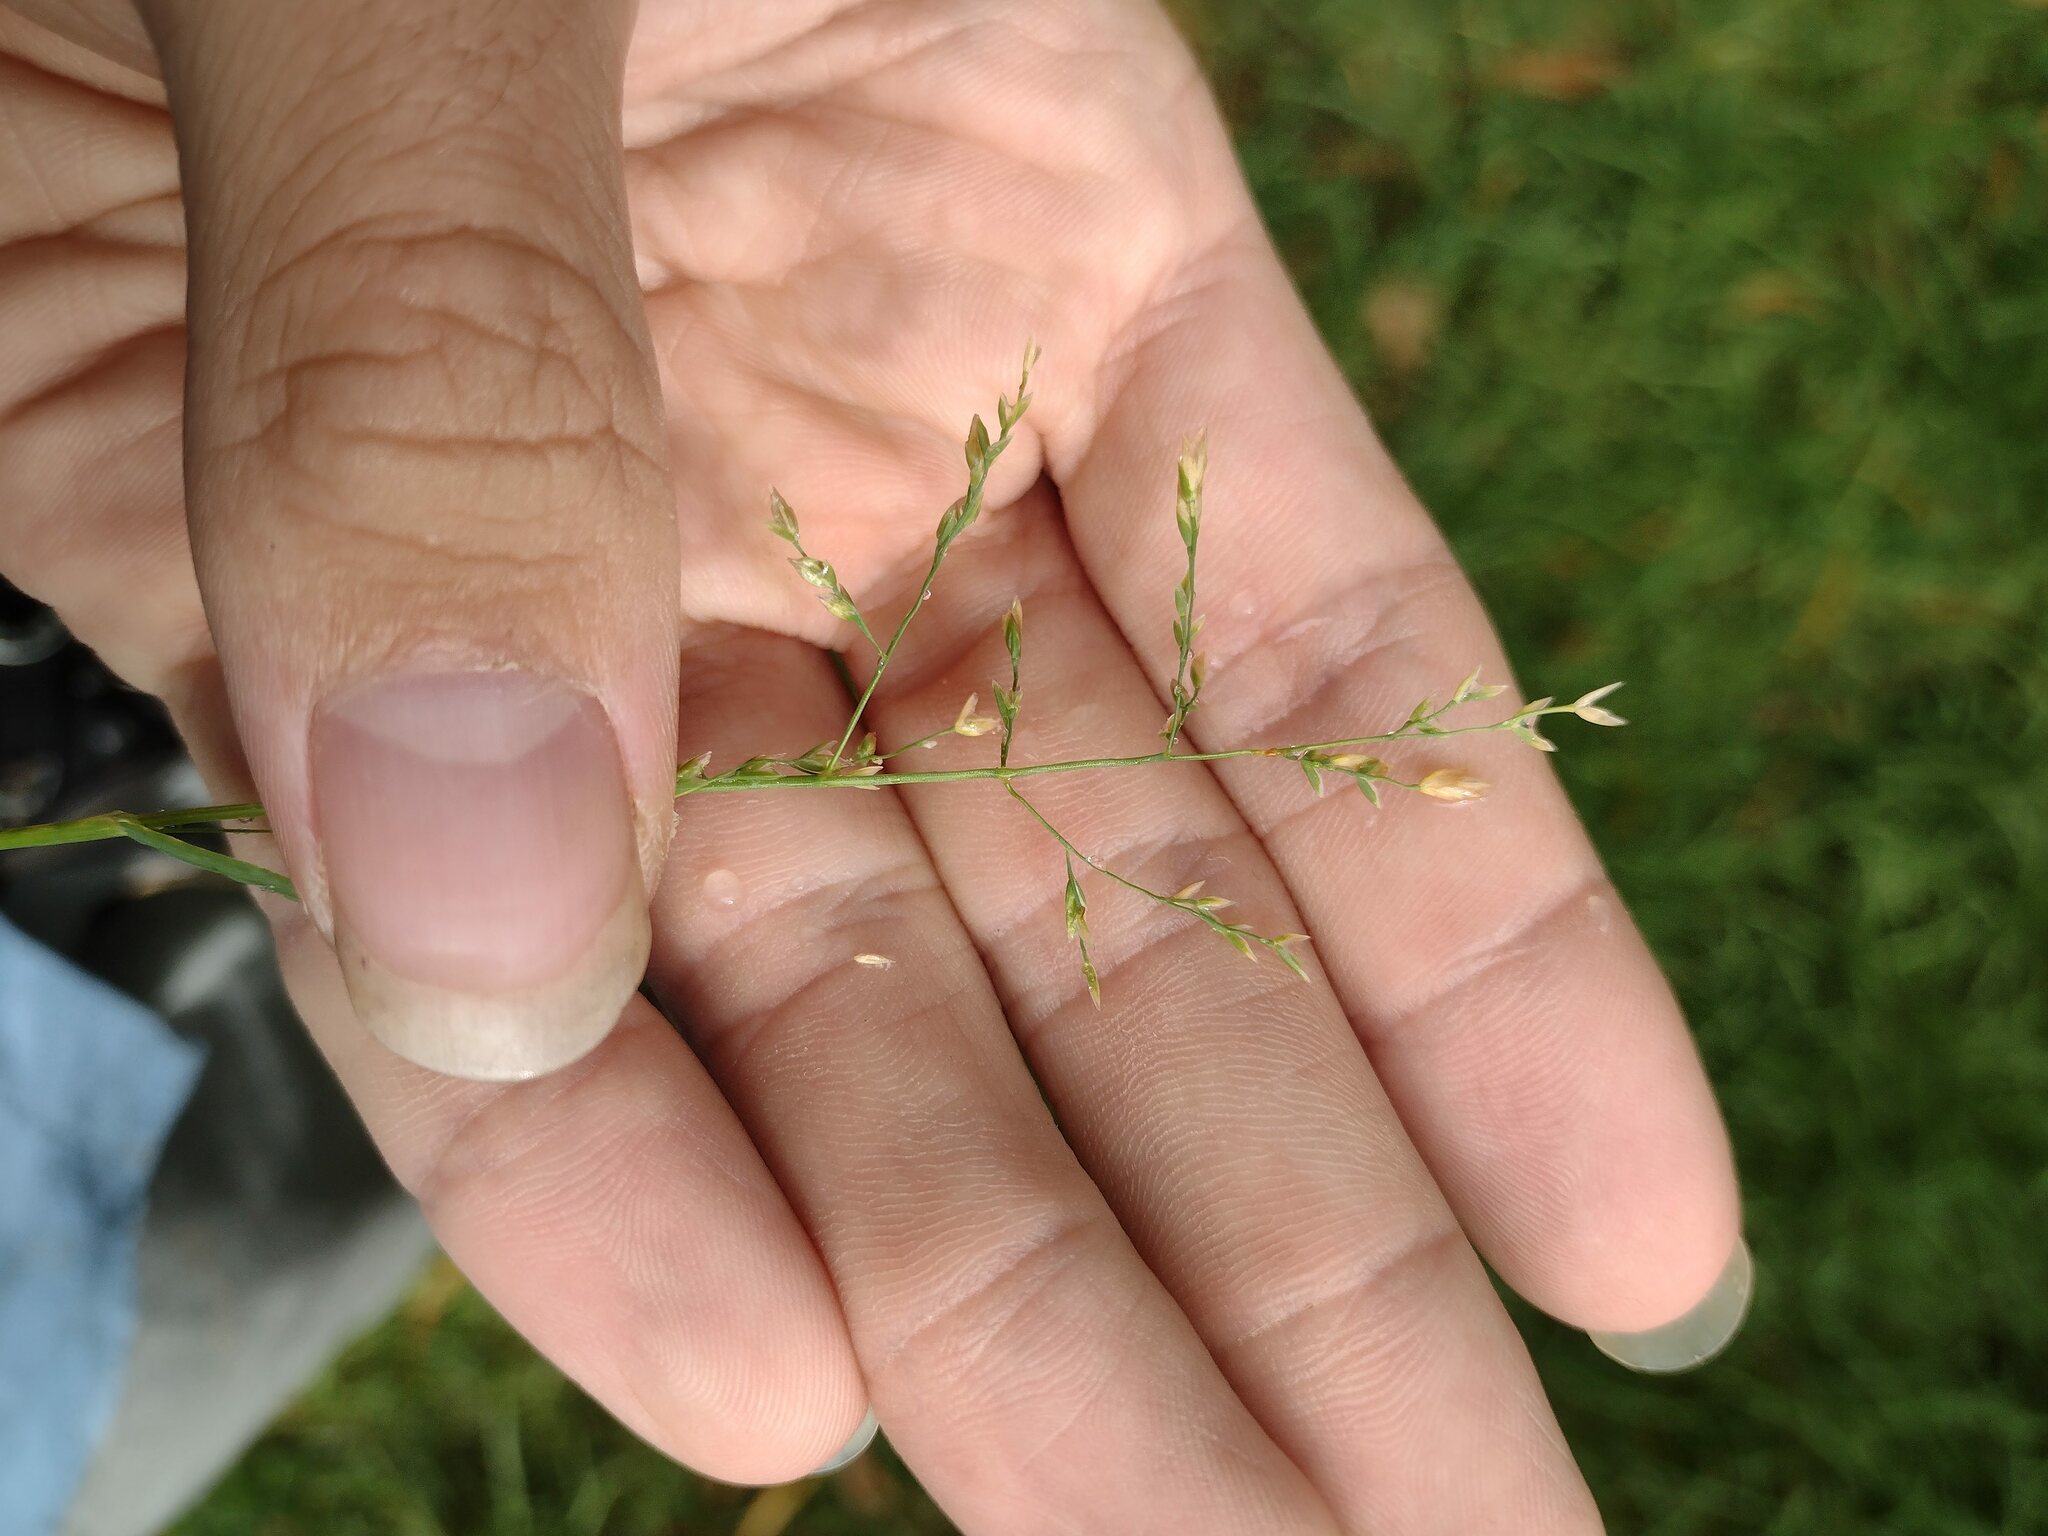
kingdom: Plantae
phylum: Tracheophyta
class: Liliopsida
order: Poales
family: Poaceae
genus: Poa
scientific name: Poa annua
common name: Annual bluegrass
